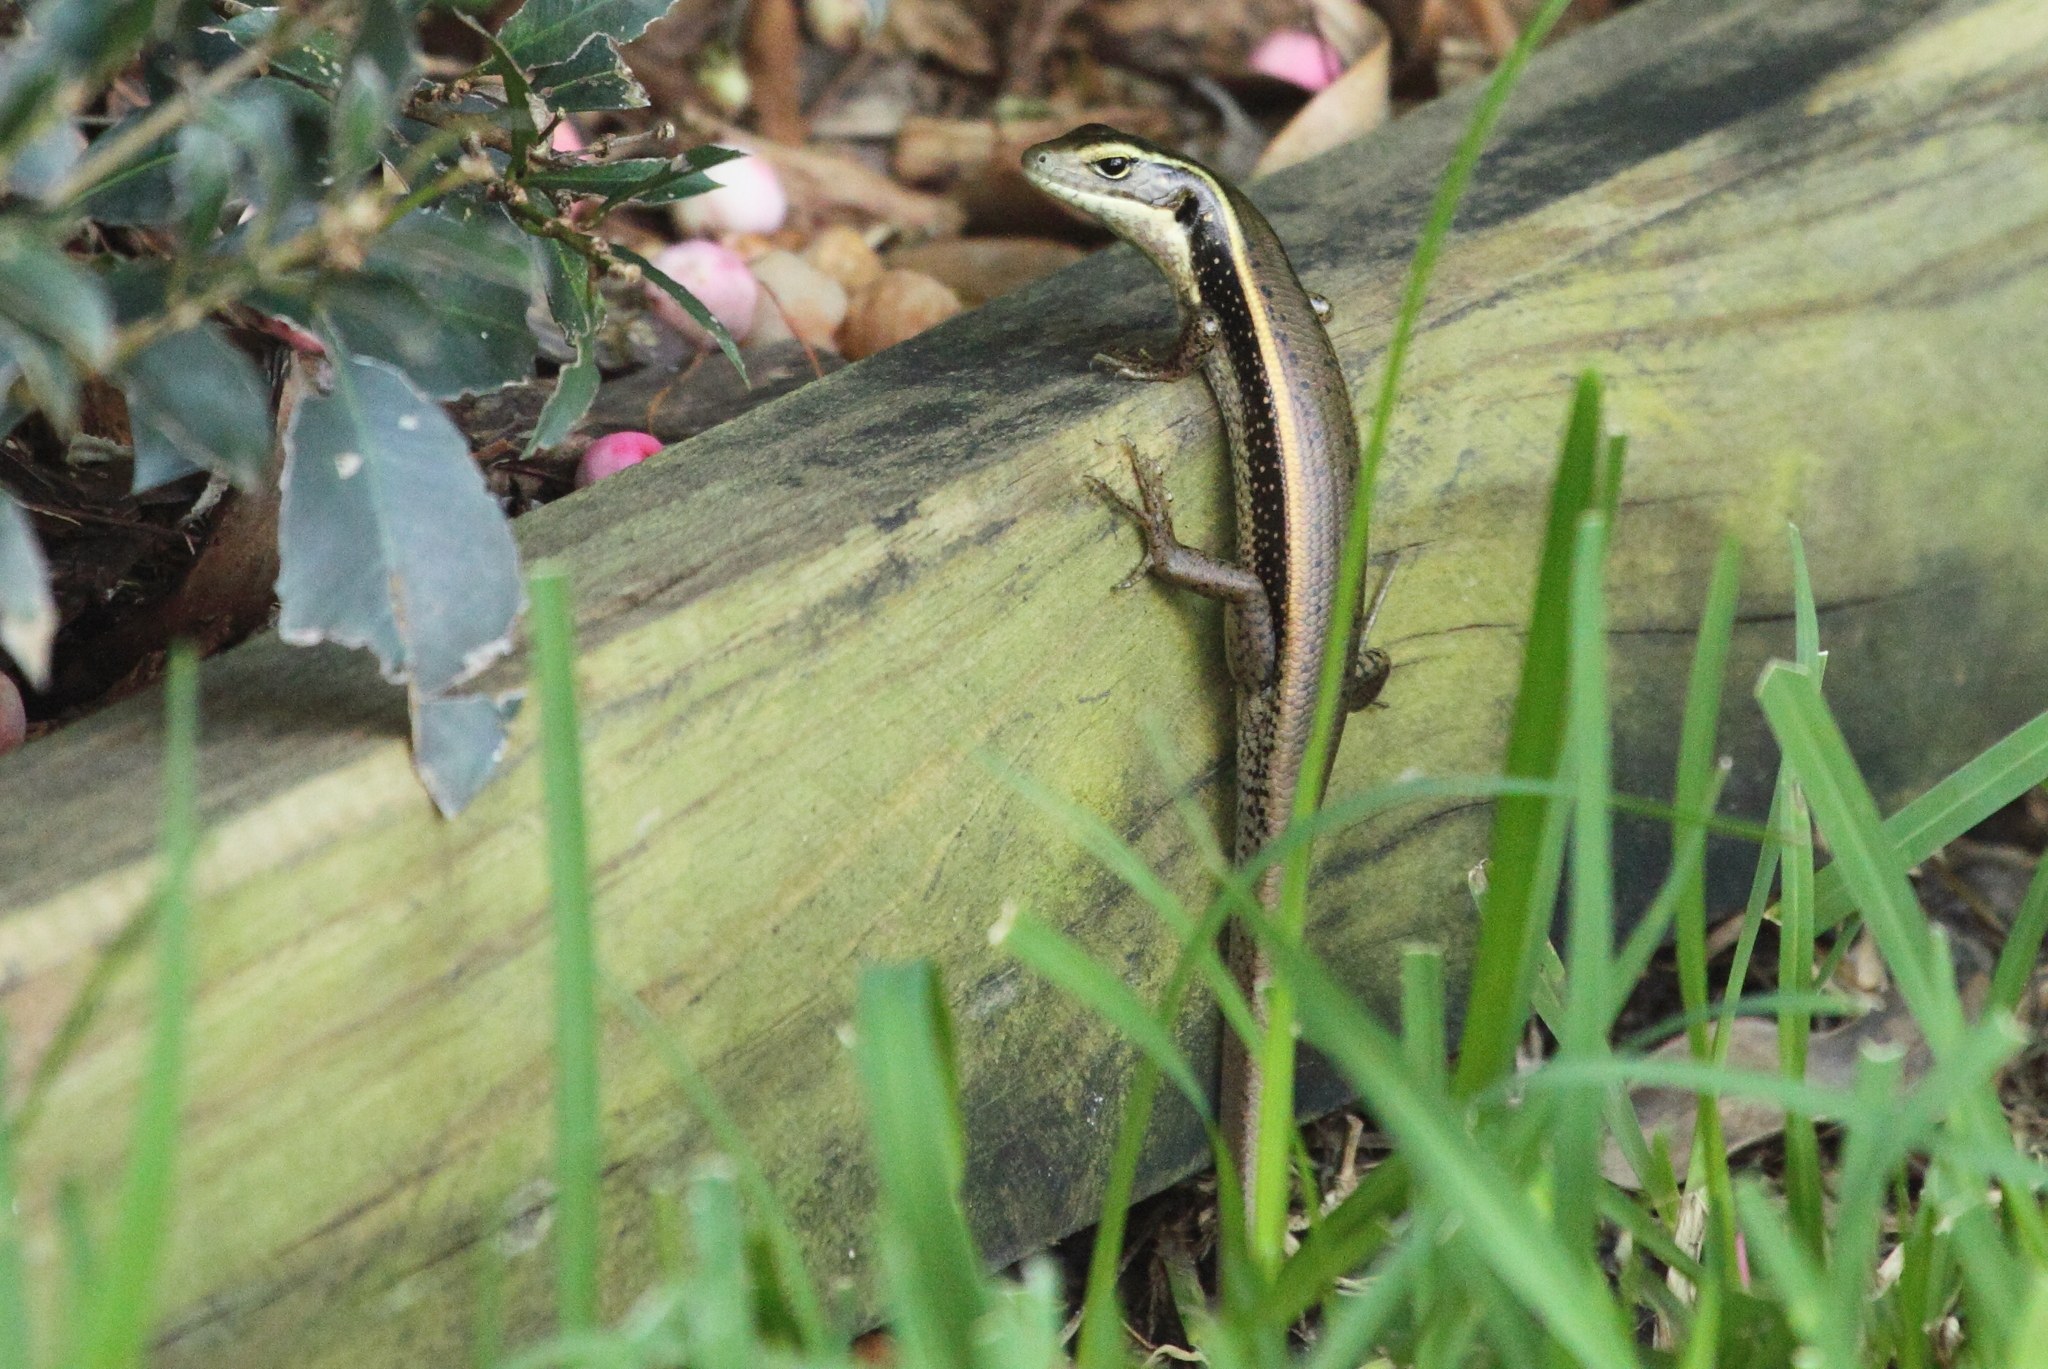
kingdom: Animalia
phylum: Chordata
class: Squamata
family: Scincidae
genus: Eulamprus
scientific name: Eulamprus quoyii
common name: Eastern water skink
